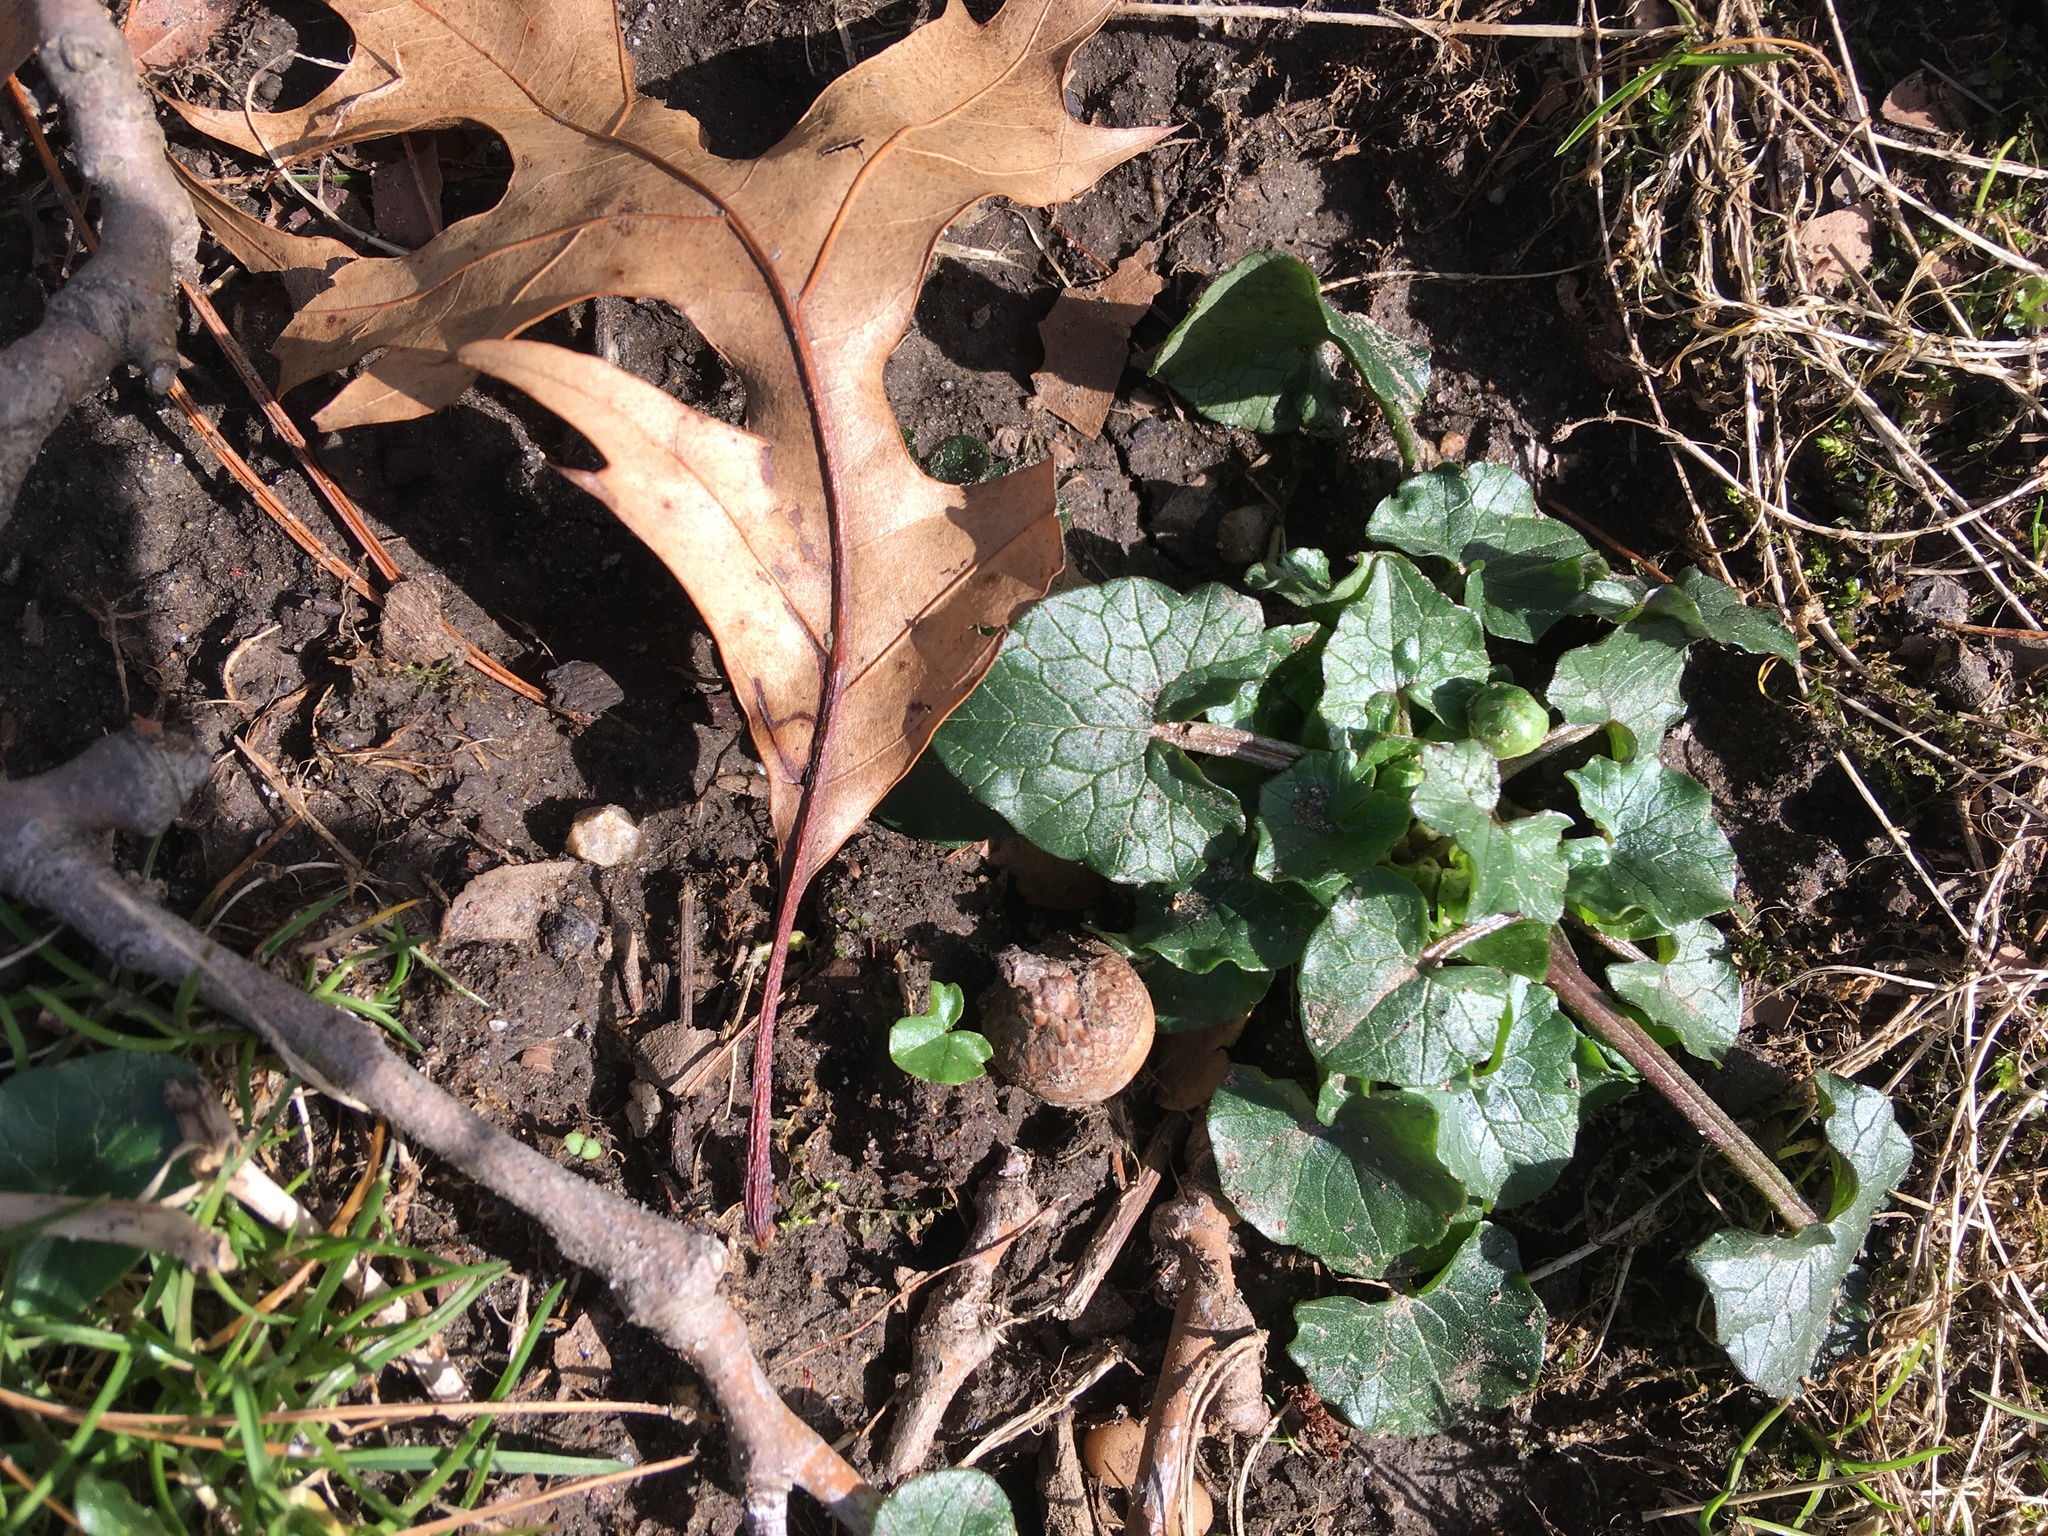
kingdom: Plantae
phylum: Tracheophyta
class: Magnoliopsida
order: Ranunculales
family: Ranunculaceae
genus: Ficaria
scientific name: Ficaria verna
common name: Lesser celandine
